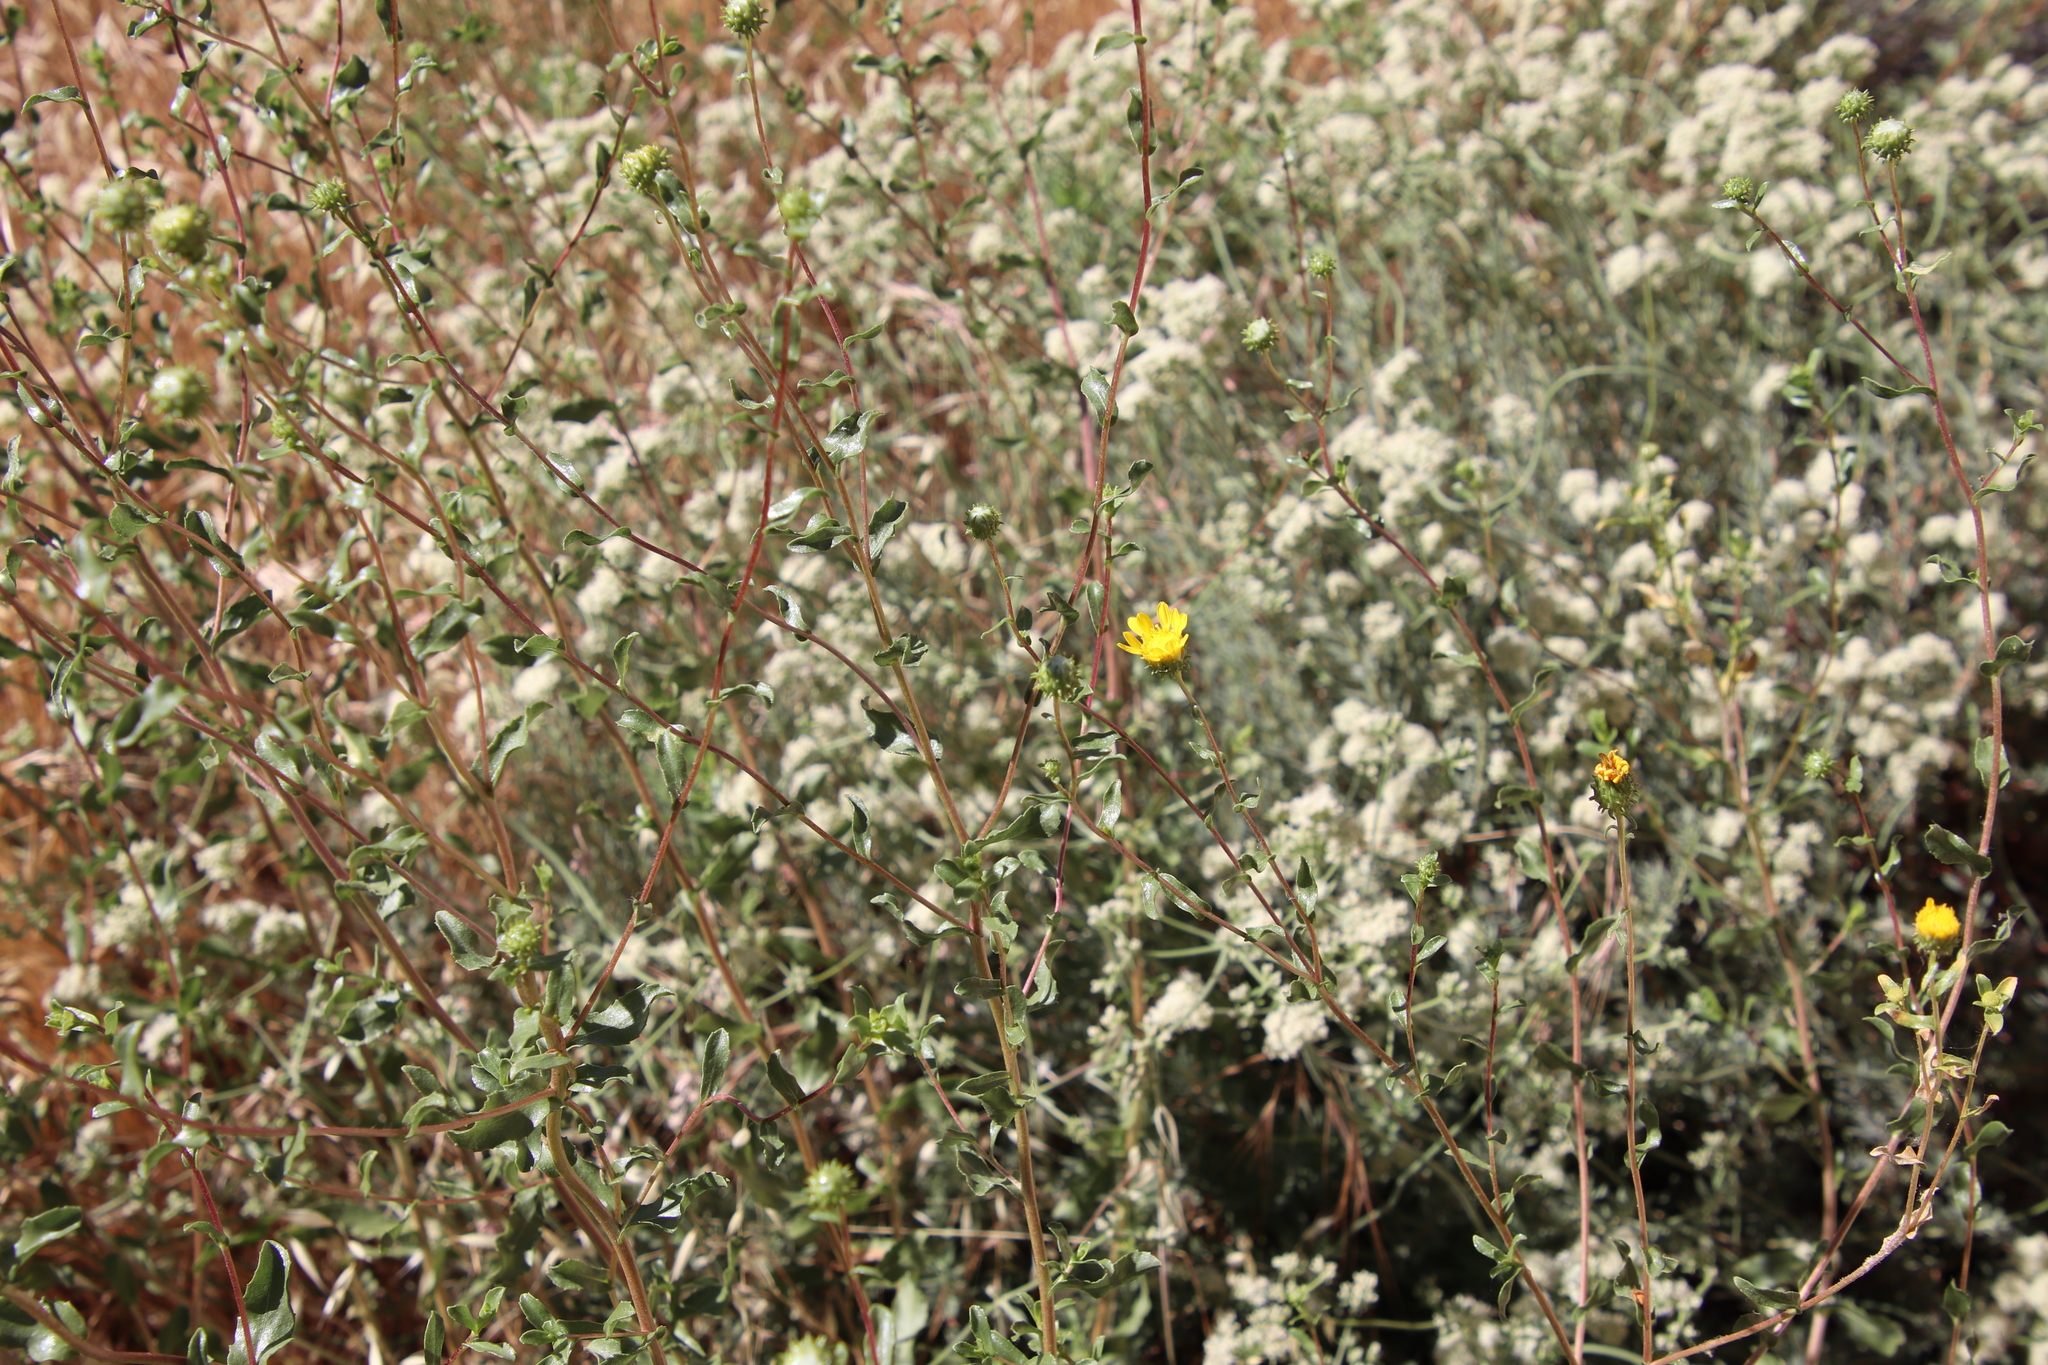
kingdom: Plantae
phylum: Tracheophyta
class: Magnoliopsida
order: Asterales
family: Asteraceae
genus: Grindelia
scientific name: Grindelia hirsutula
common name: Hairy gumweed
